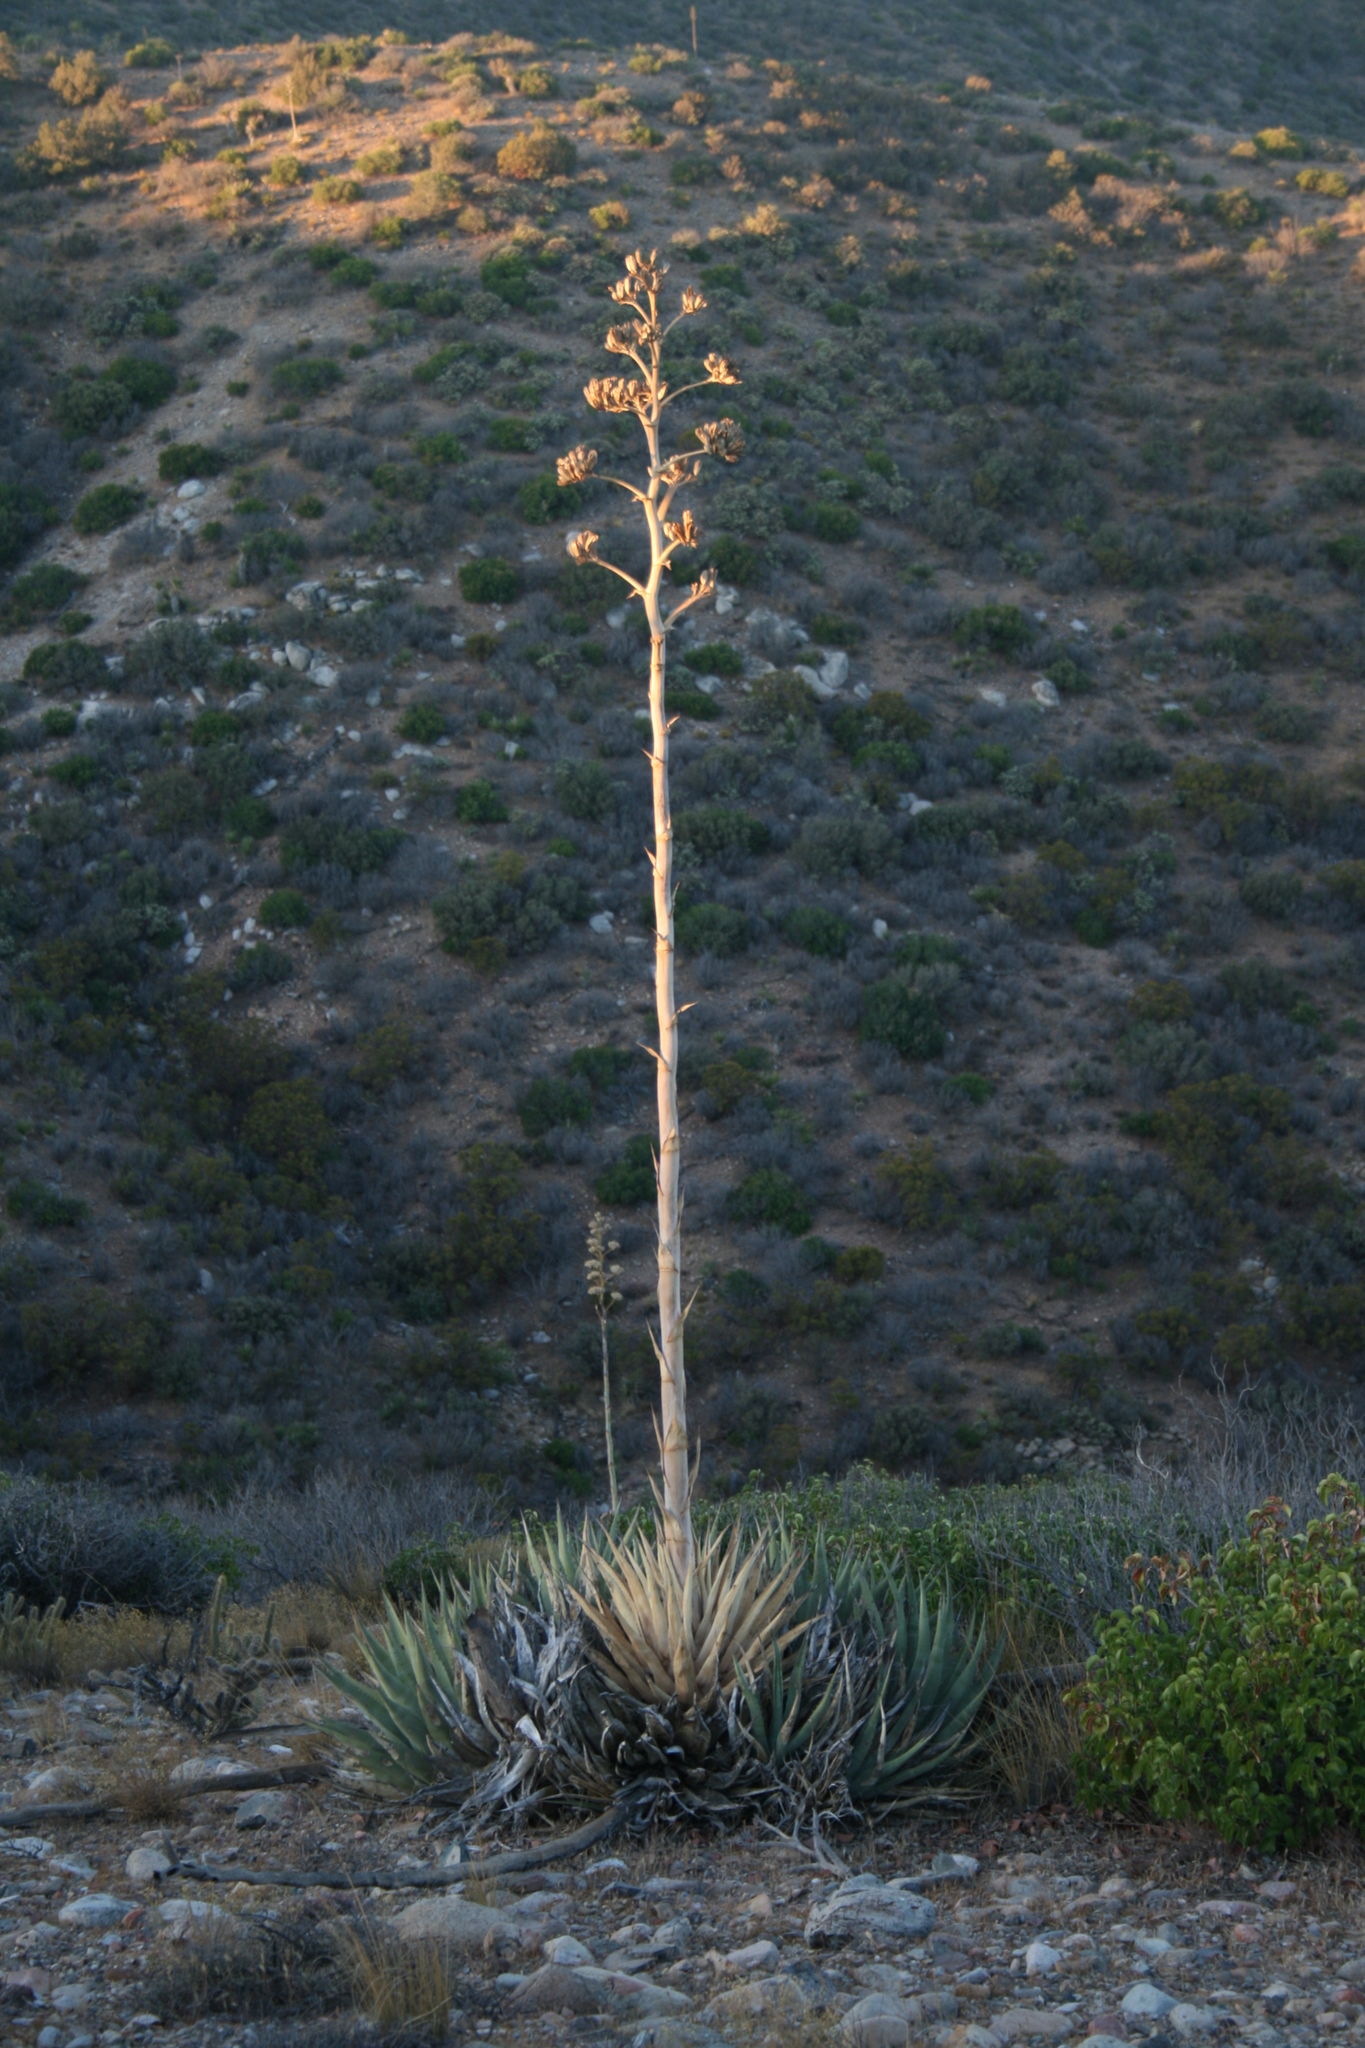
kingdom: Plantae
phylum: Tracheophyta
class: Liliopsida
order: Asparagales
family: Asparagaceae
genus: Agave
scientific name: Agave deserti
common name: Desert agave
